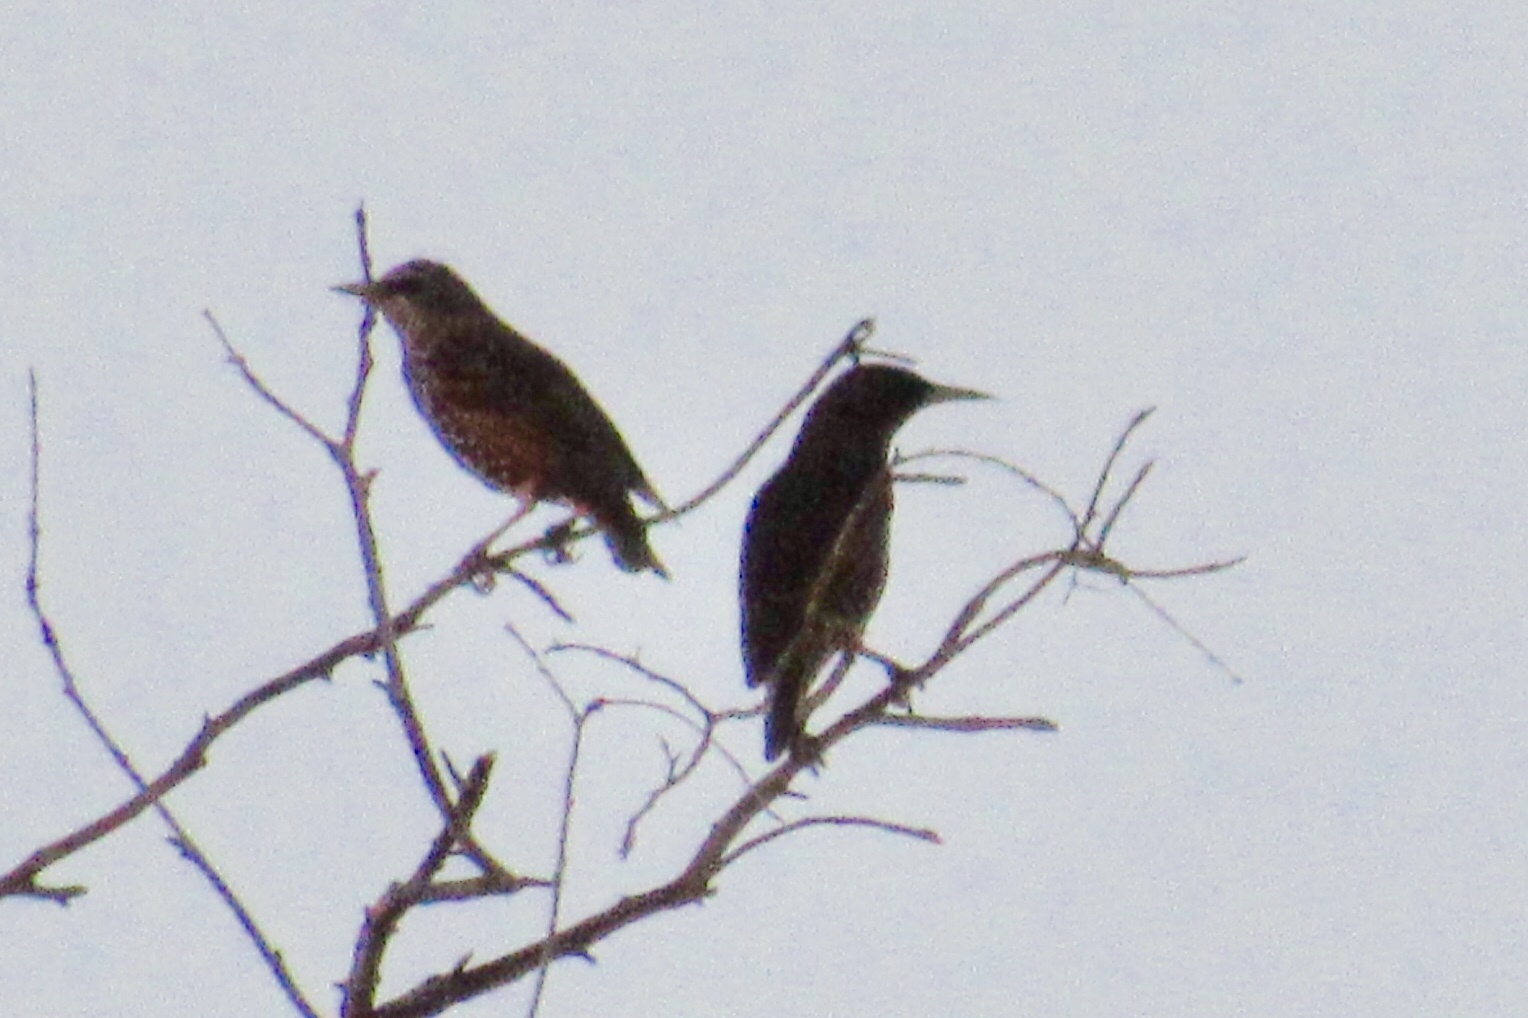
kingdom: Animalia
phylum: Chordata
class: Aves
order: Passeriformes
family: Sturnidae
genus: Sturnus
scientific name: Sturnus vulgaris
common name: Common starling
